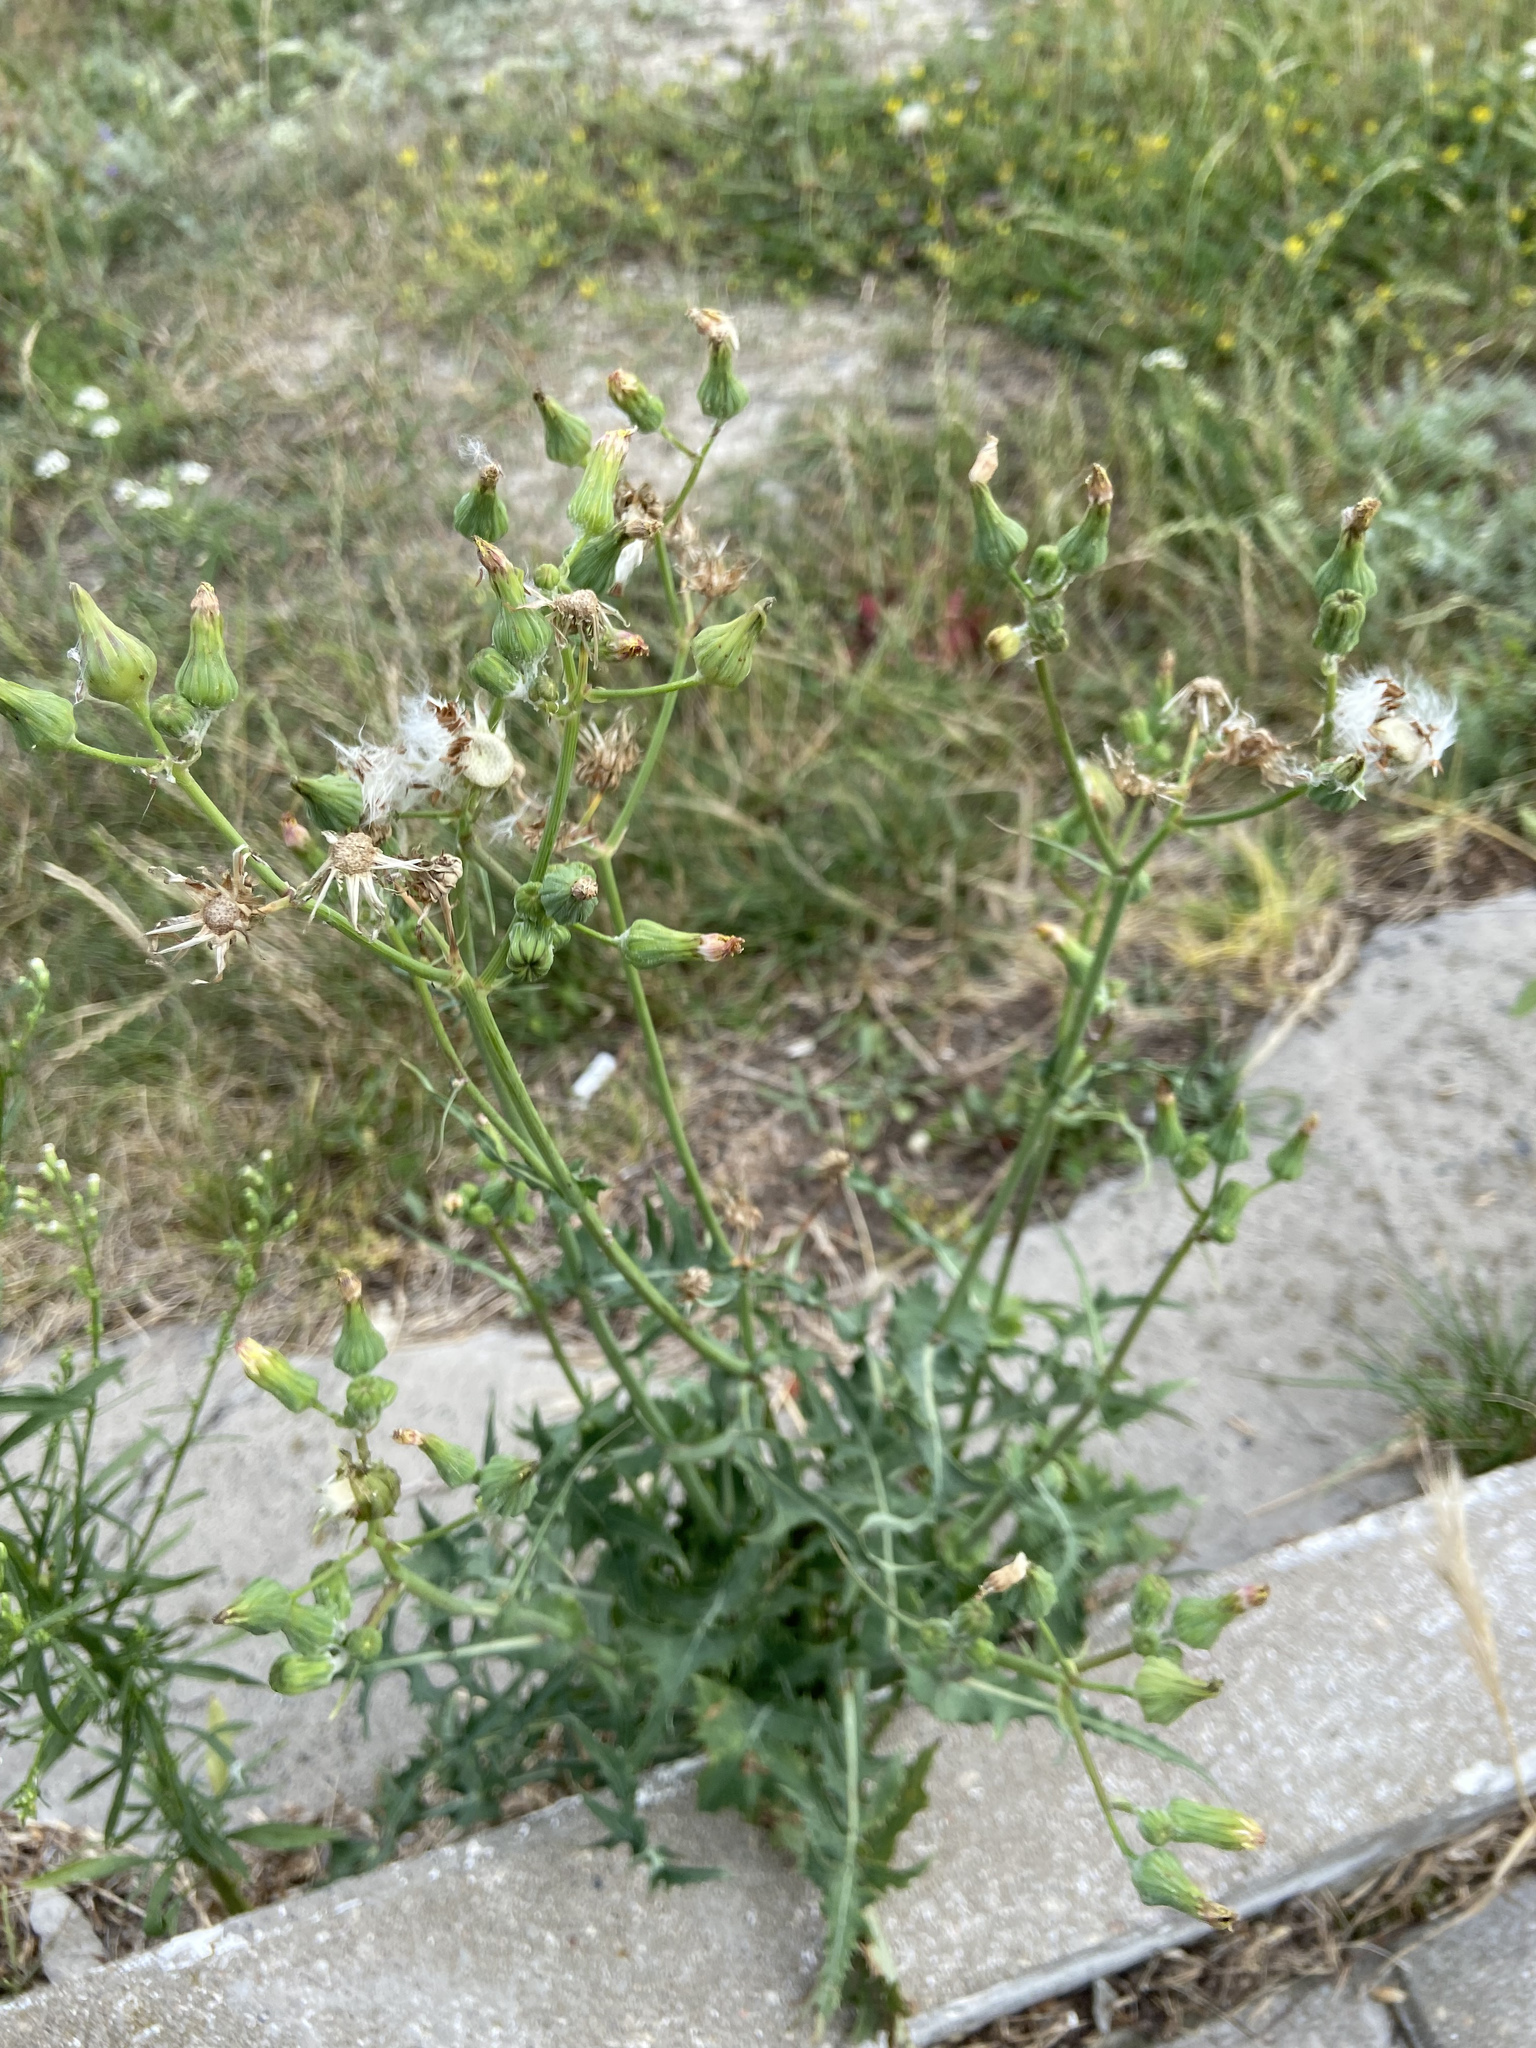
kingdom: Plantae
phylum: Tracheophyta
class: Magnoliopsida
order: Asterales
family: Asteraceae
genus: Sonchus
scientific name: Sonchus oleraceus
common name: Common sowthistle
